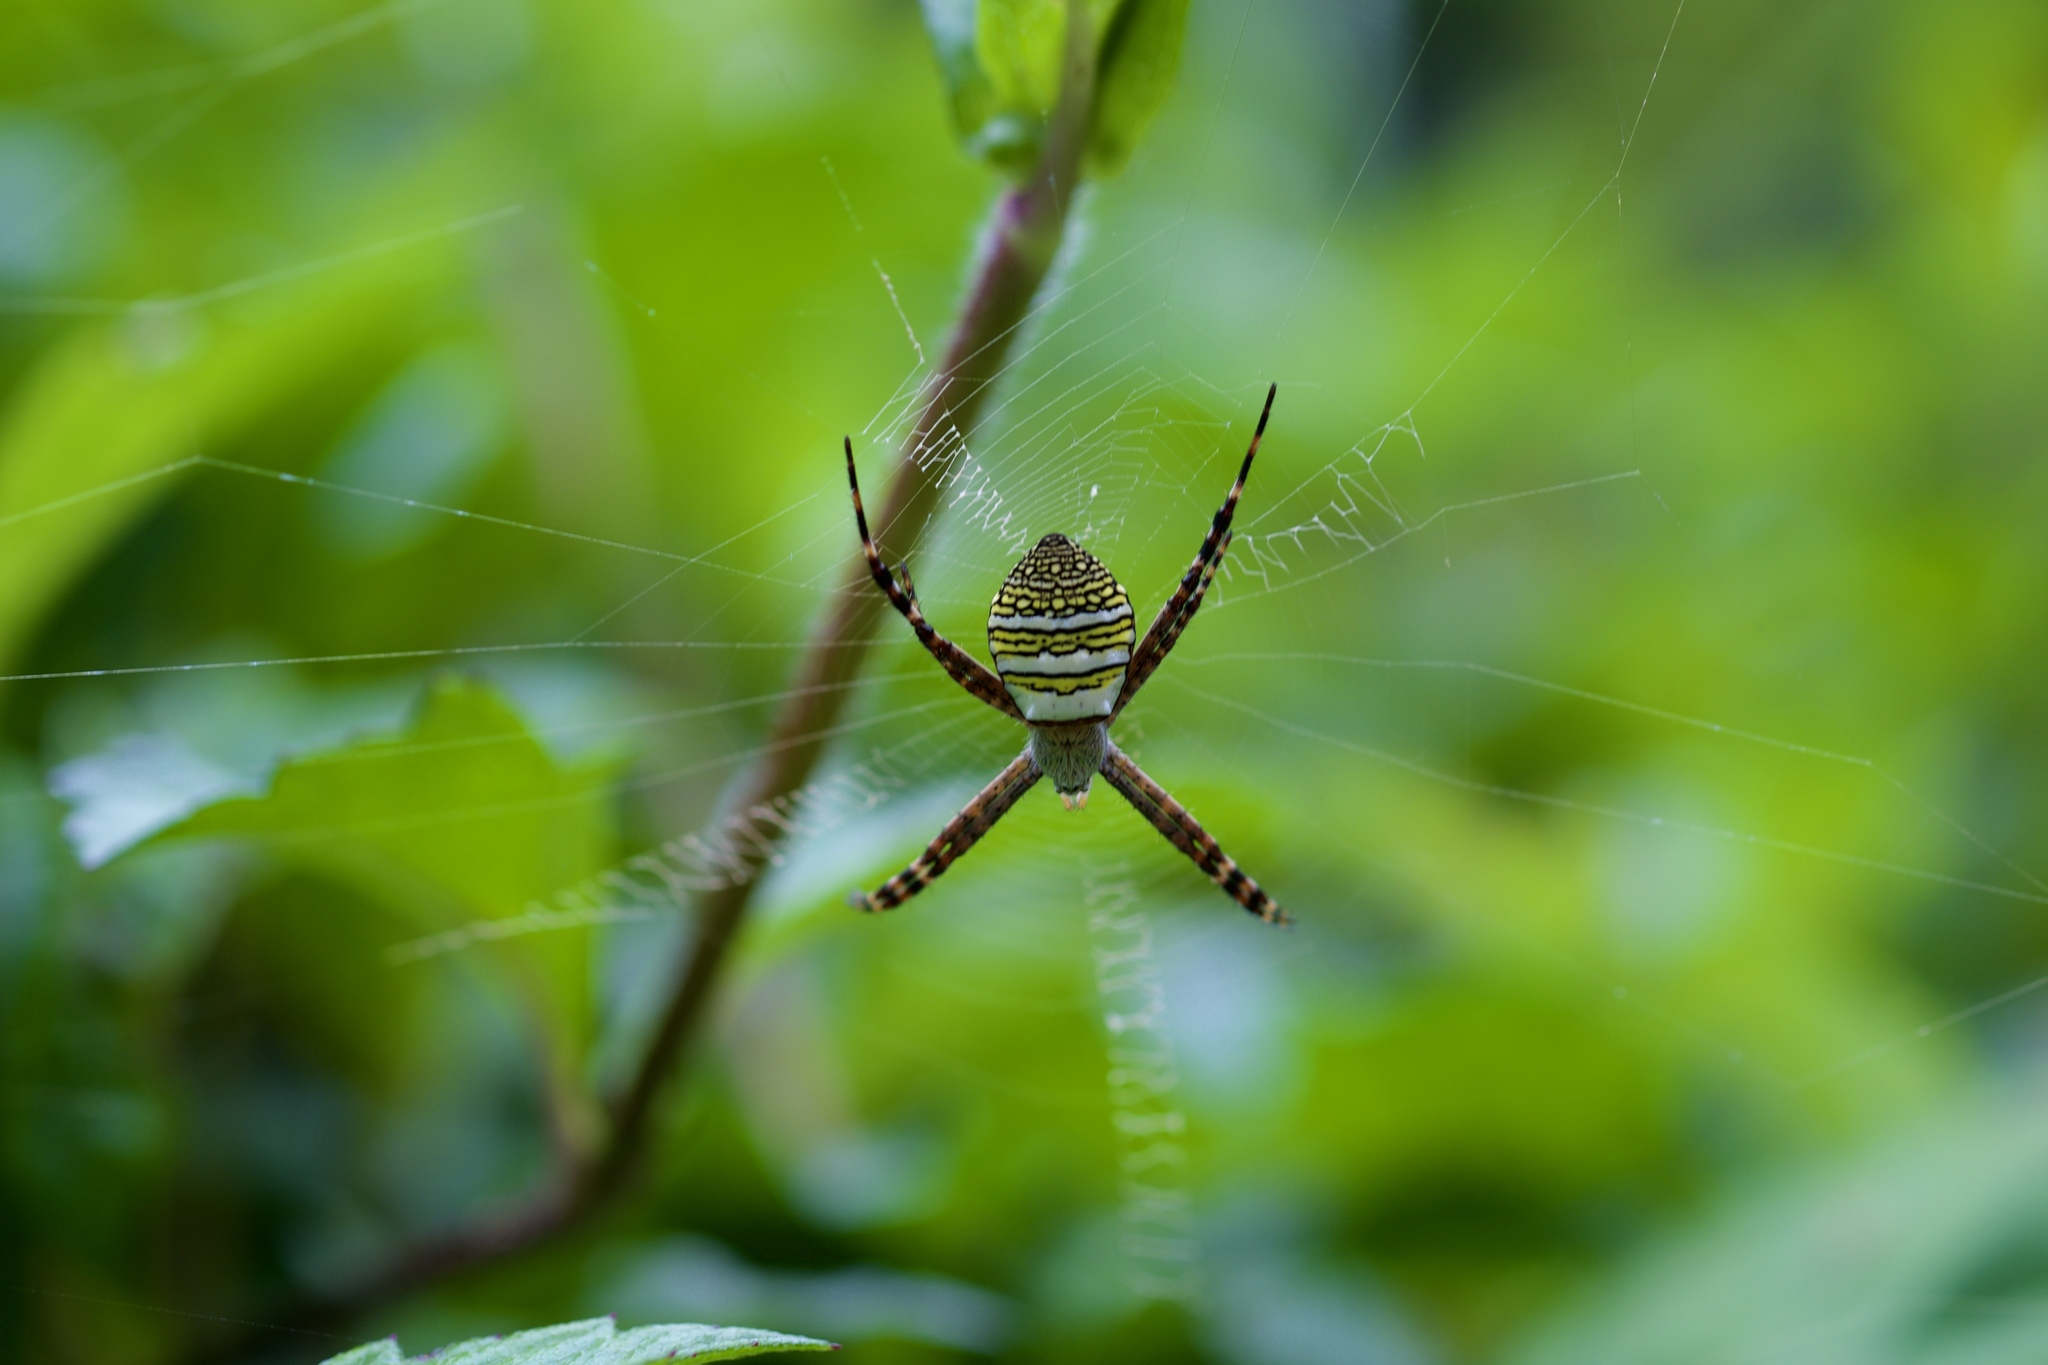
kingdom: Animalia
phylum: Arthropoda
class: Arachnida
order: Araneae
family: Araneidae
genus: Argiope
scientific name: Argiope aemula
